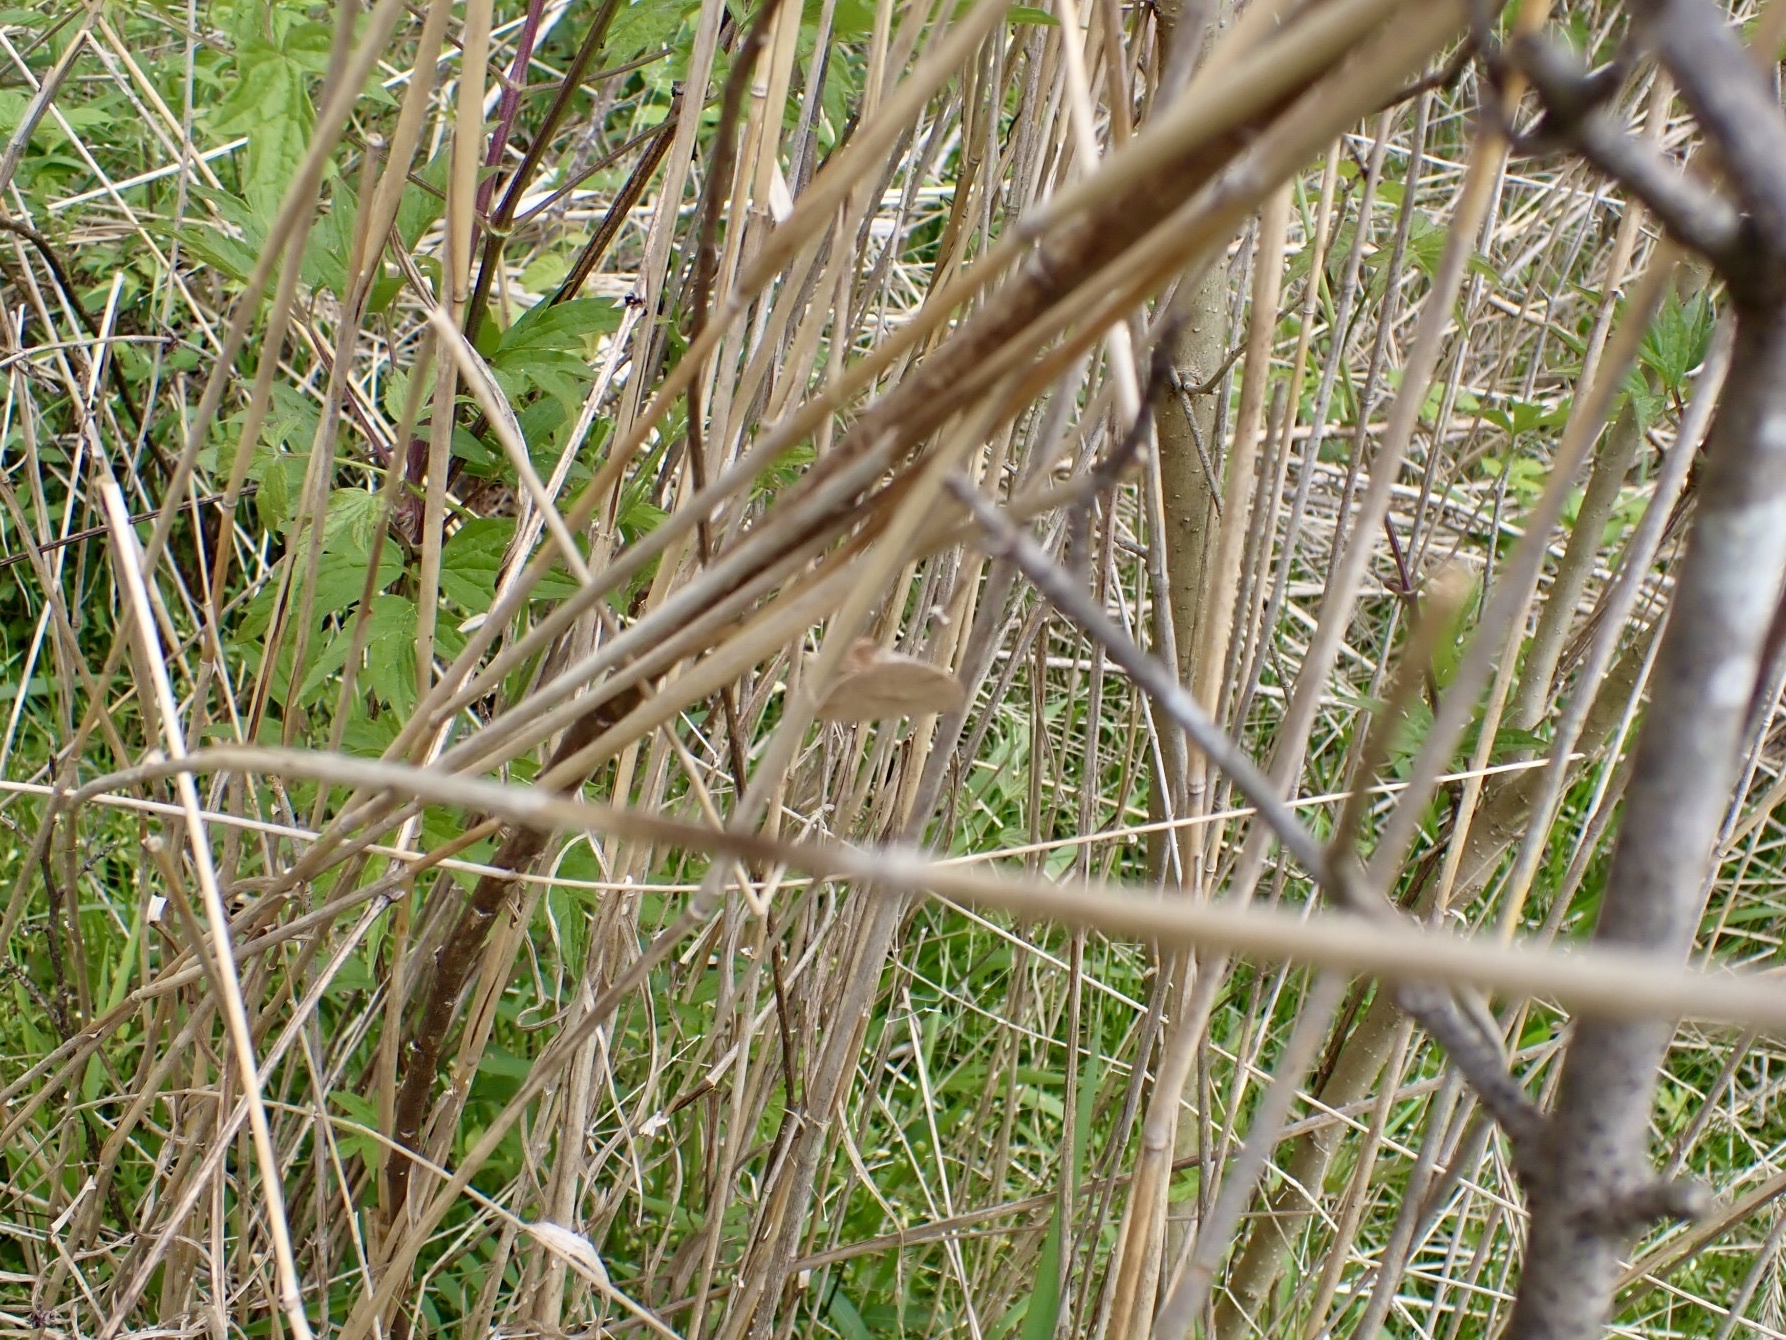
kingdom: Animalia
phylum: Arthropoda
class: Insecta
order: Lepidoptera
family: Pieridae
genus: Abaeis
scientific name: Abaeis nicippe
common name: Sleepy orange
